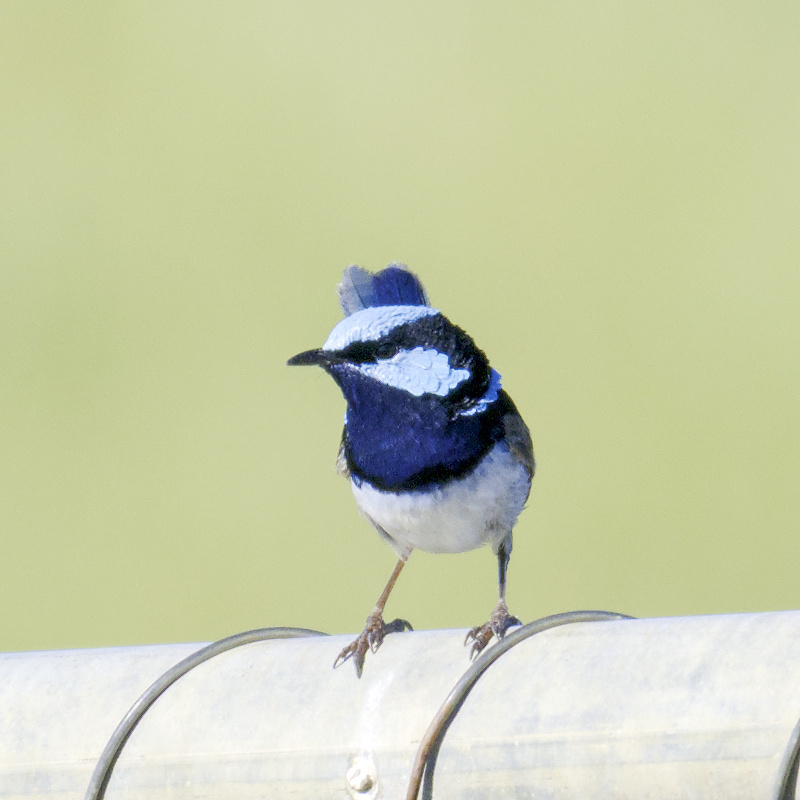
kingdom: Animalia
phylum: Chordata
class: Aves
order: Passeriformes
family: Maluridae
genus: Malurus
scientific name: Malurus cyaneus
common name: Superb fairywren
